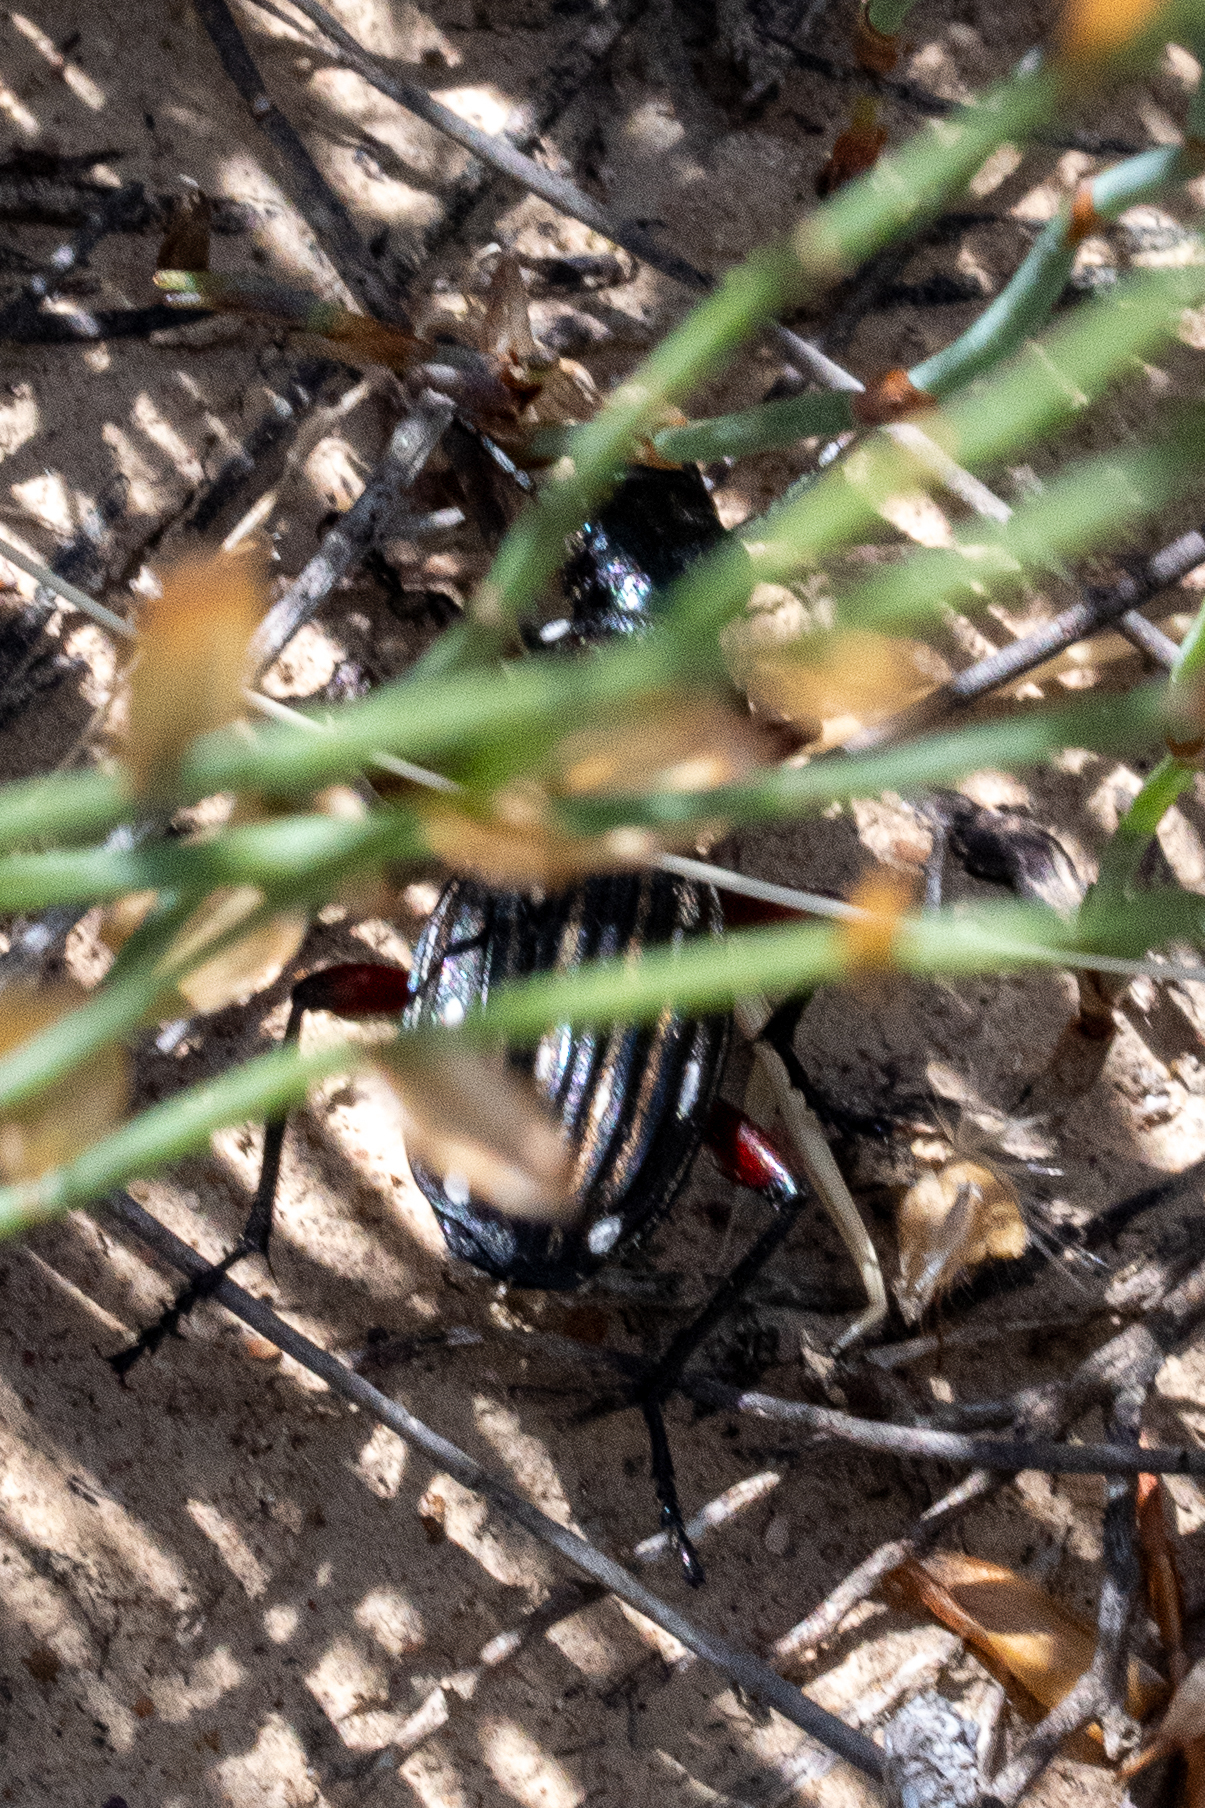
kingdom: Animalia
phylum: Arthropoda
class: Insecta
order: Coleoptera
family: Carabidae
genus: Anthia
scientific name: Anthia decemguttata
